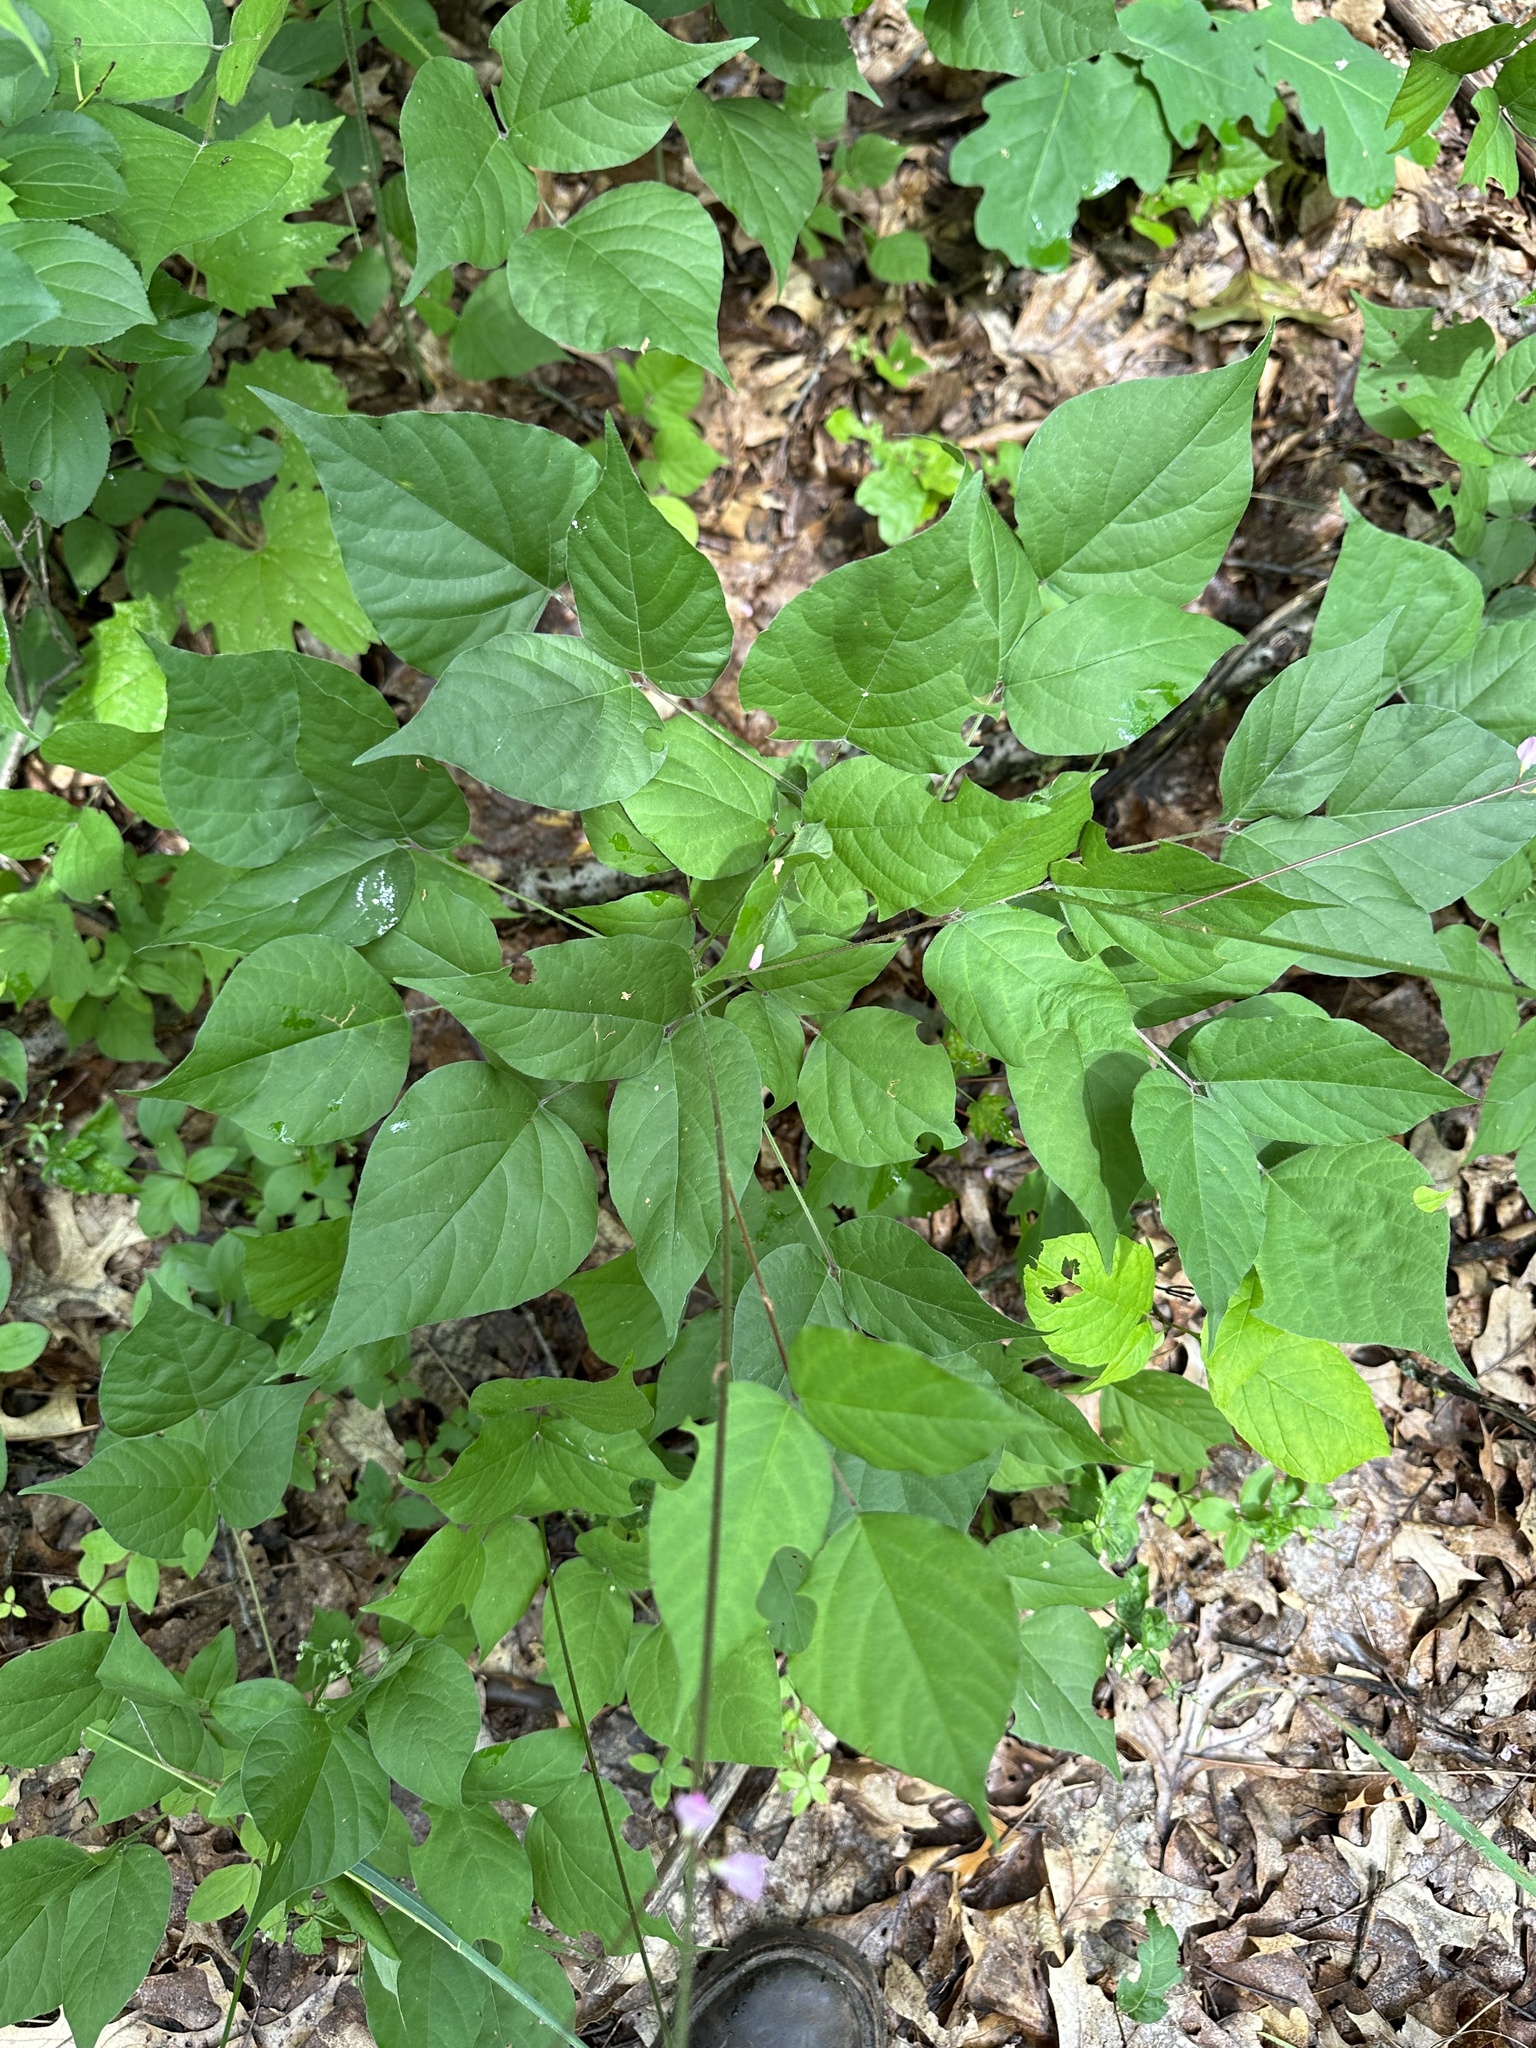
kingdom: Plantae
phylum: Tracheophyta
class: Magnoliopsida
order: Fabales
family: Fabaceae
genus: Hylodesmum
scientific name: Hylodesmum glutinosum
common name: Clustered-leaved tick-trefoil
